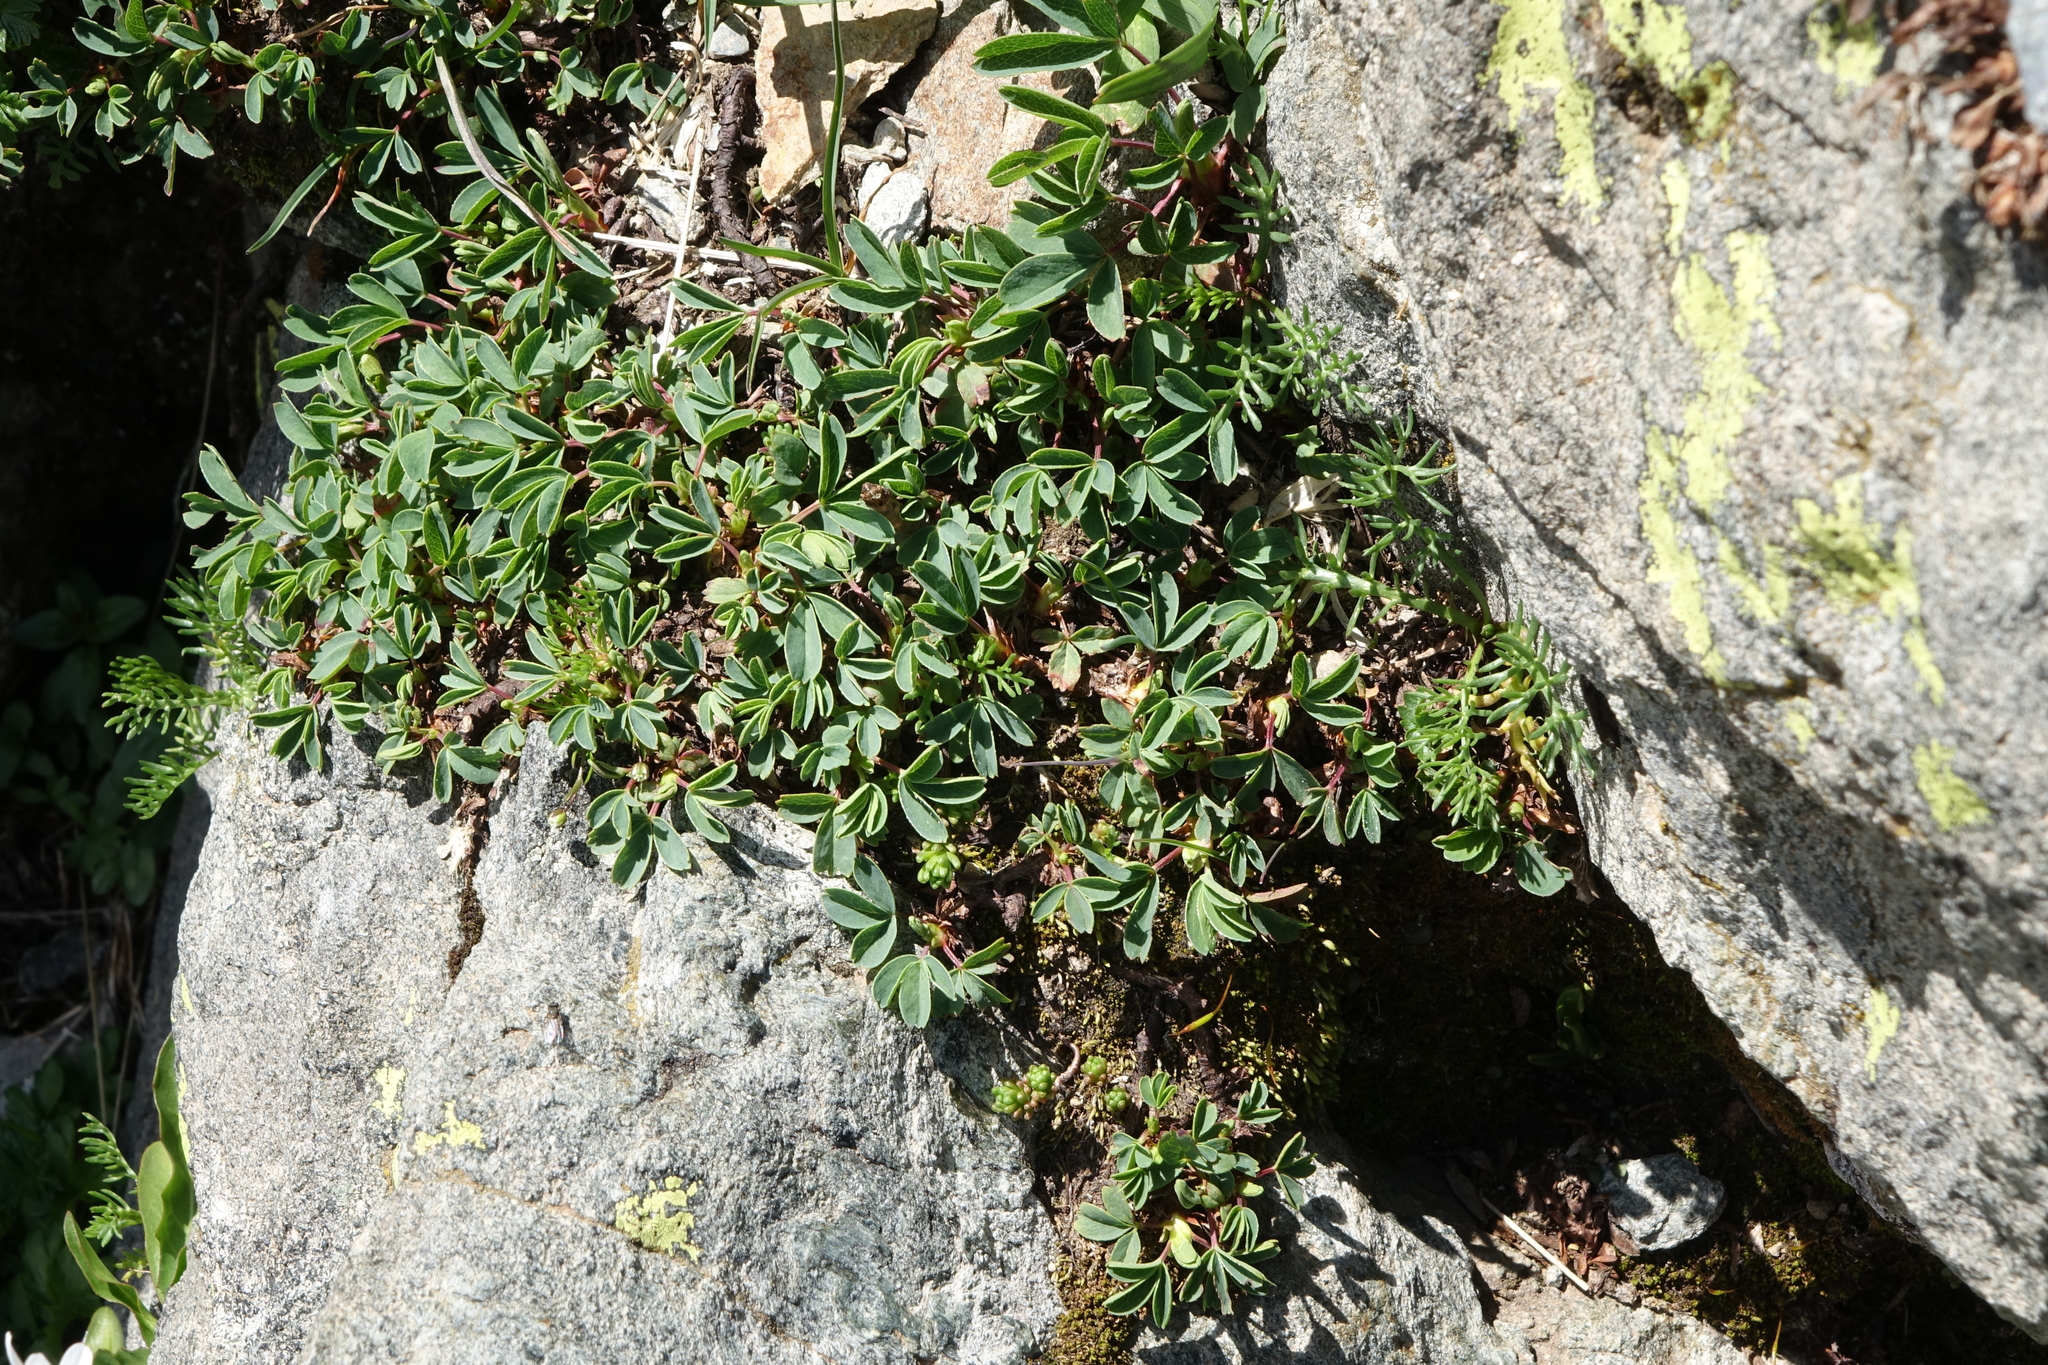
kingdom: Plantae
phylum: Tracheophyta
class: Magnoliopsida
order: Rosales
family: Rosaceae
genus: Sibbaldia
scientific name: Sibbaldia parviflora
